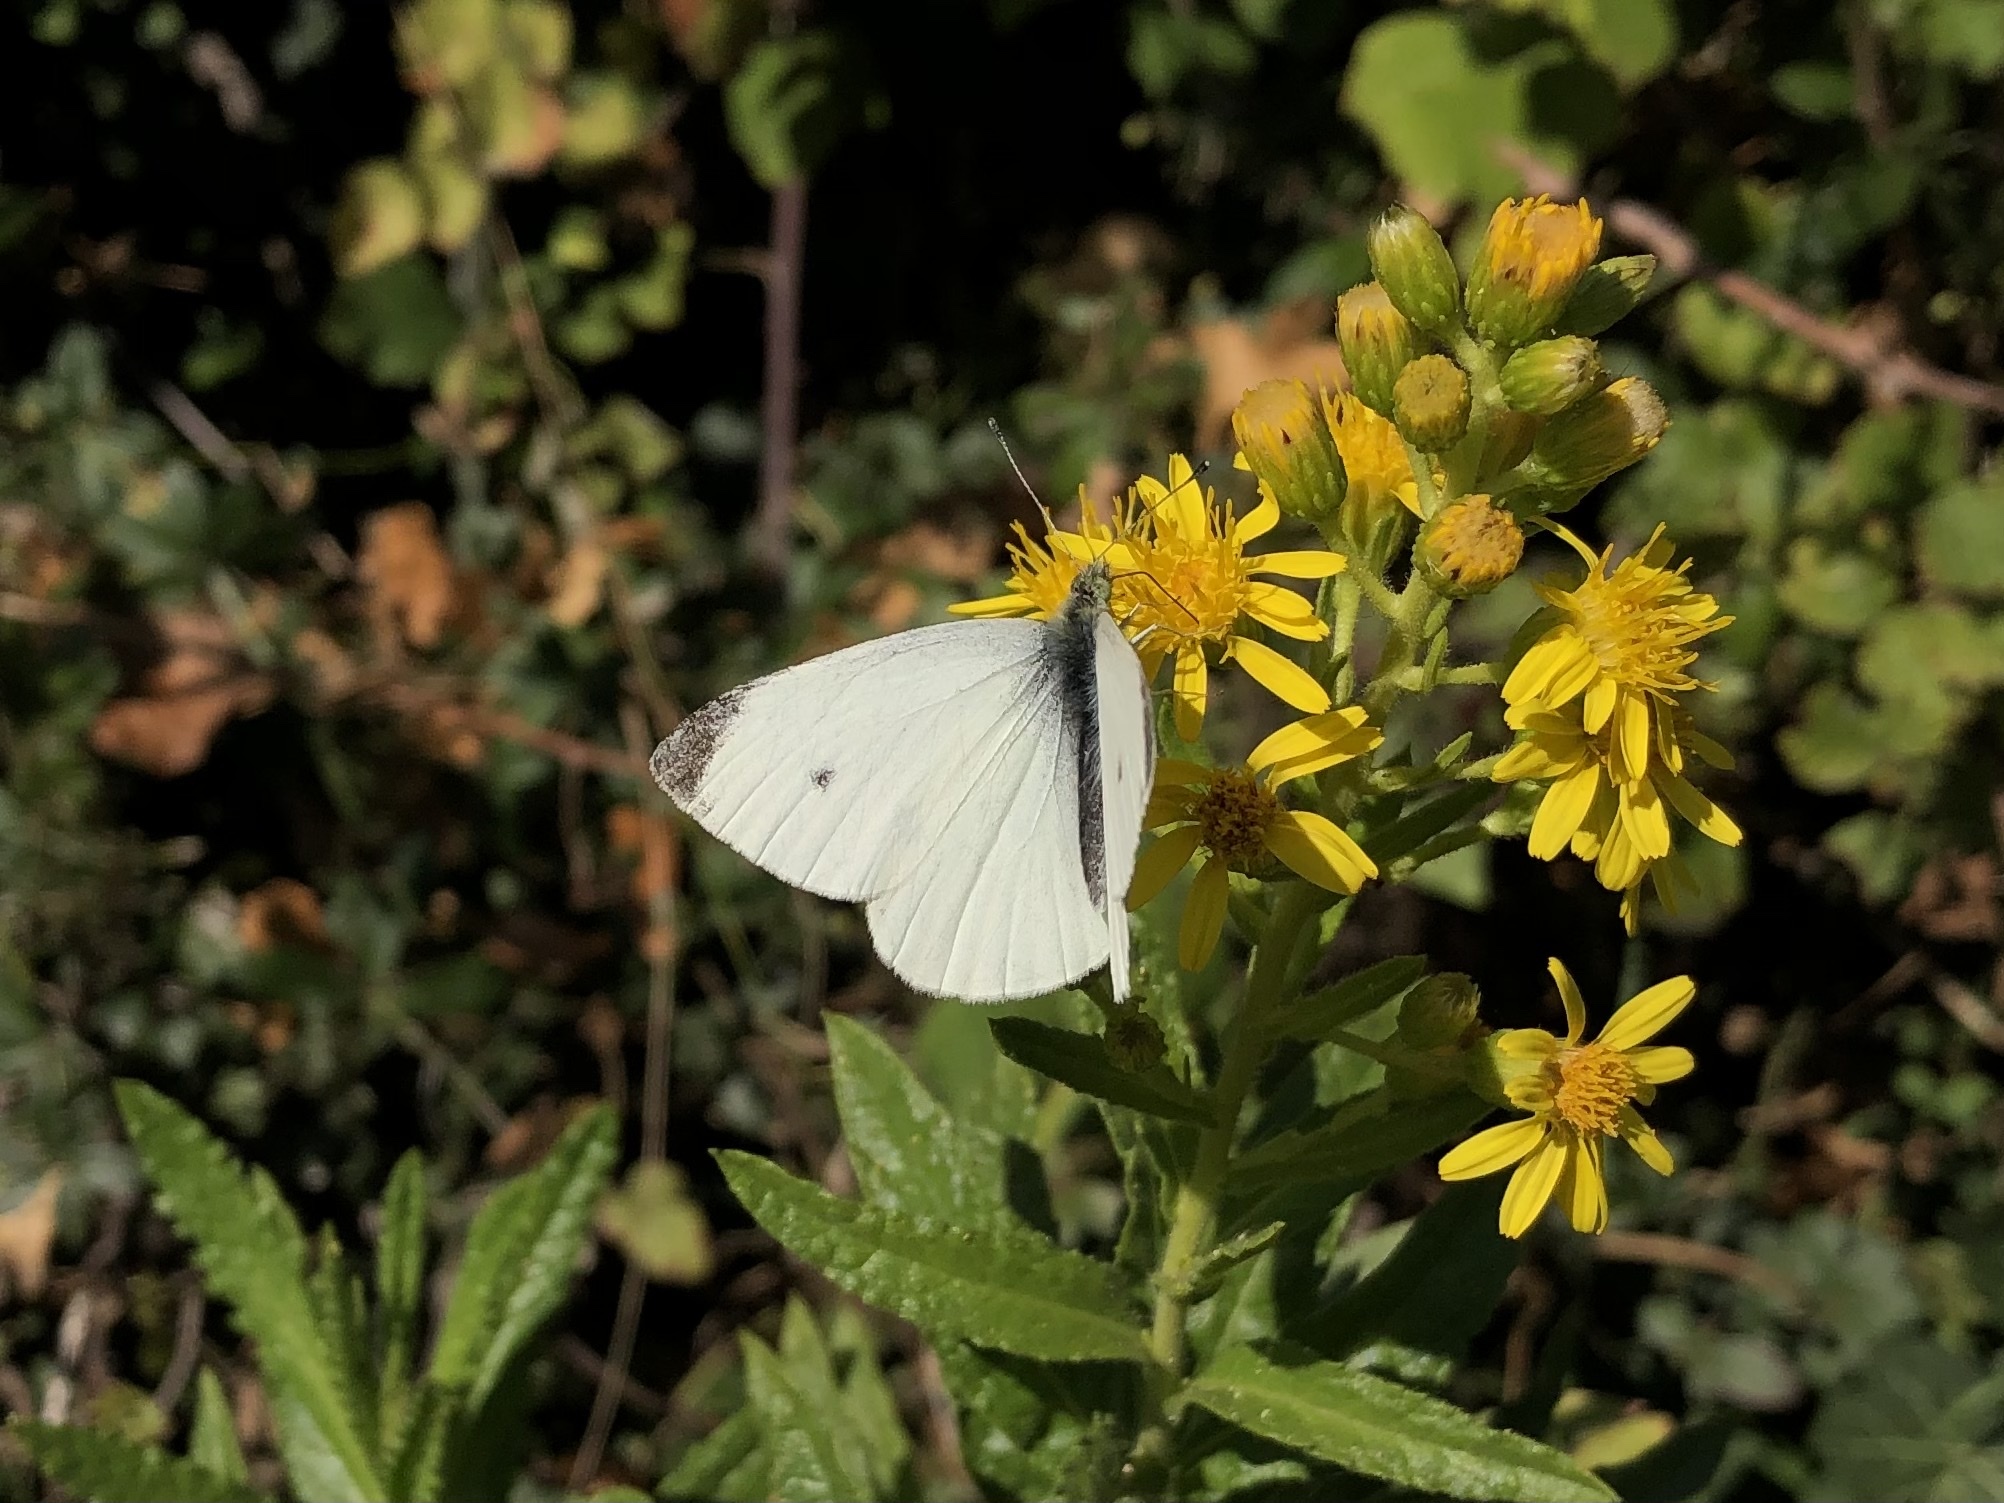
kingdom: Animalia
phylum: Arthropoda
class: Insecta
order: Lepidoptera
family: Pieridae
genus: Pieris
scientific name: Pieris rapae
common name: Small white
